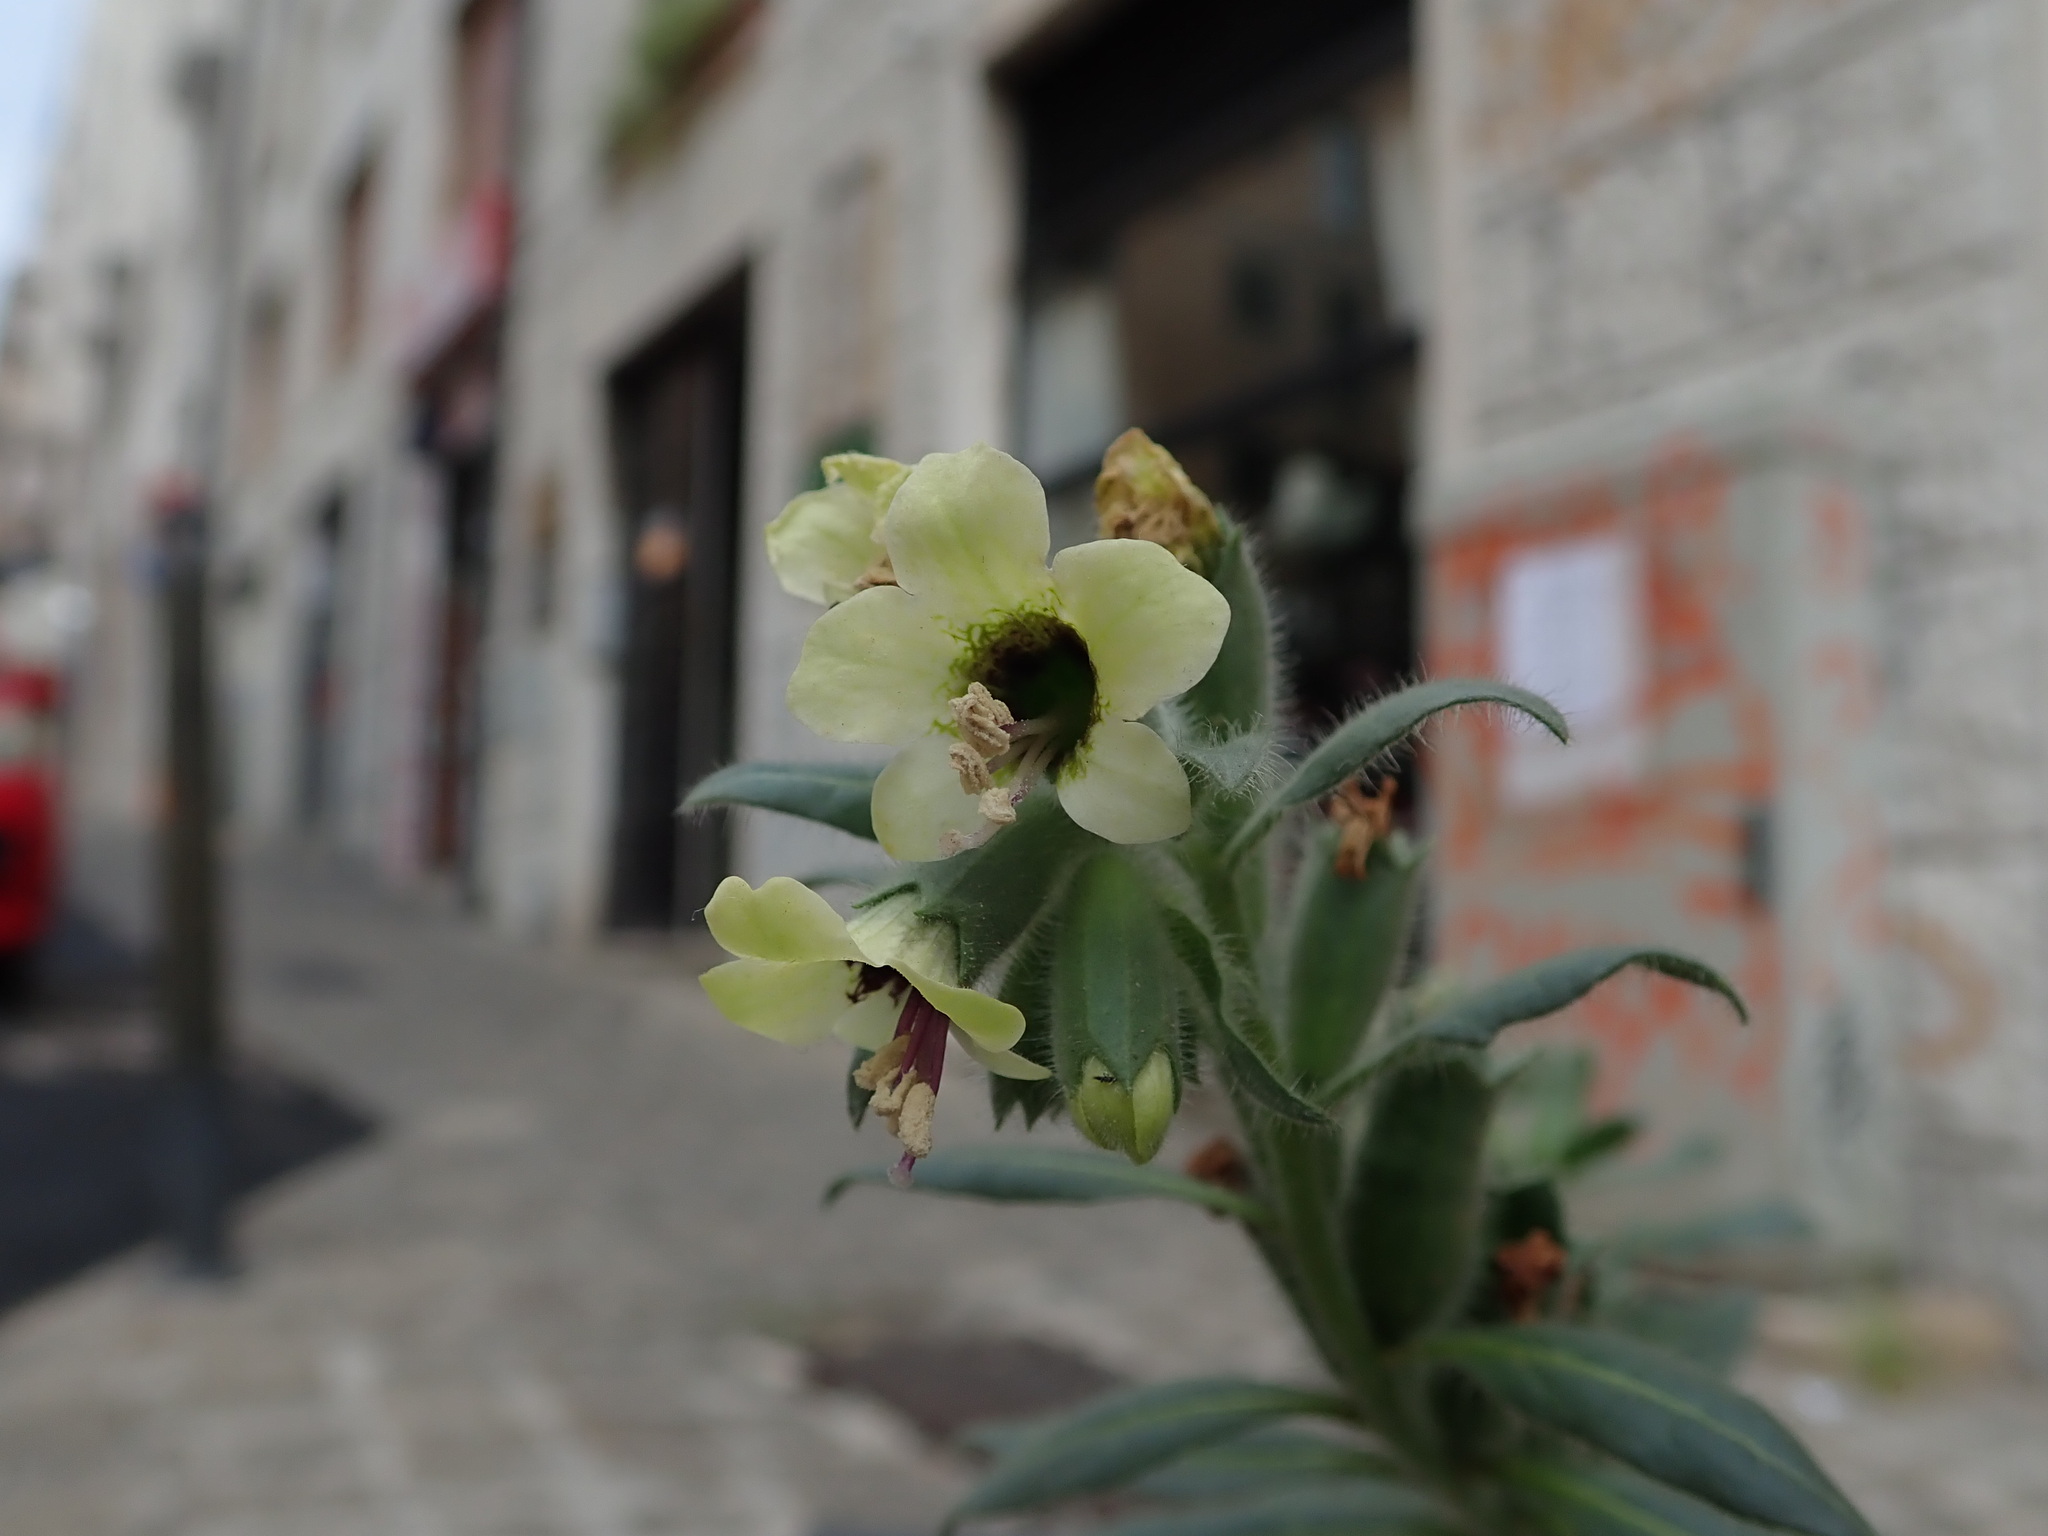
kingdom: Plantae
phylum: Tracheophyta
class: Magnoliopsida
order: Solanales
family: Solanaceae
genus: Hyoscyamus
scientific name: Hyoscyamus albus
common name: White henbane
